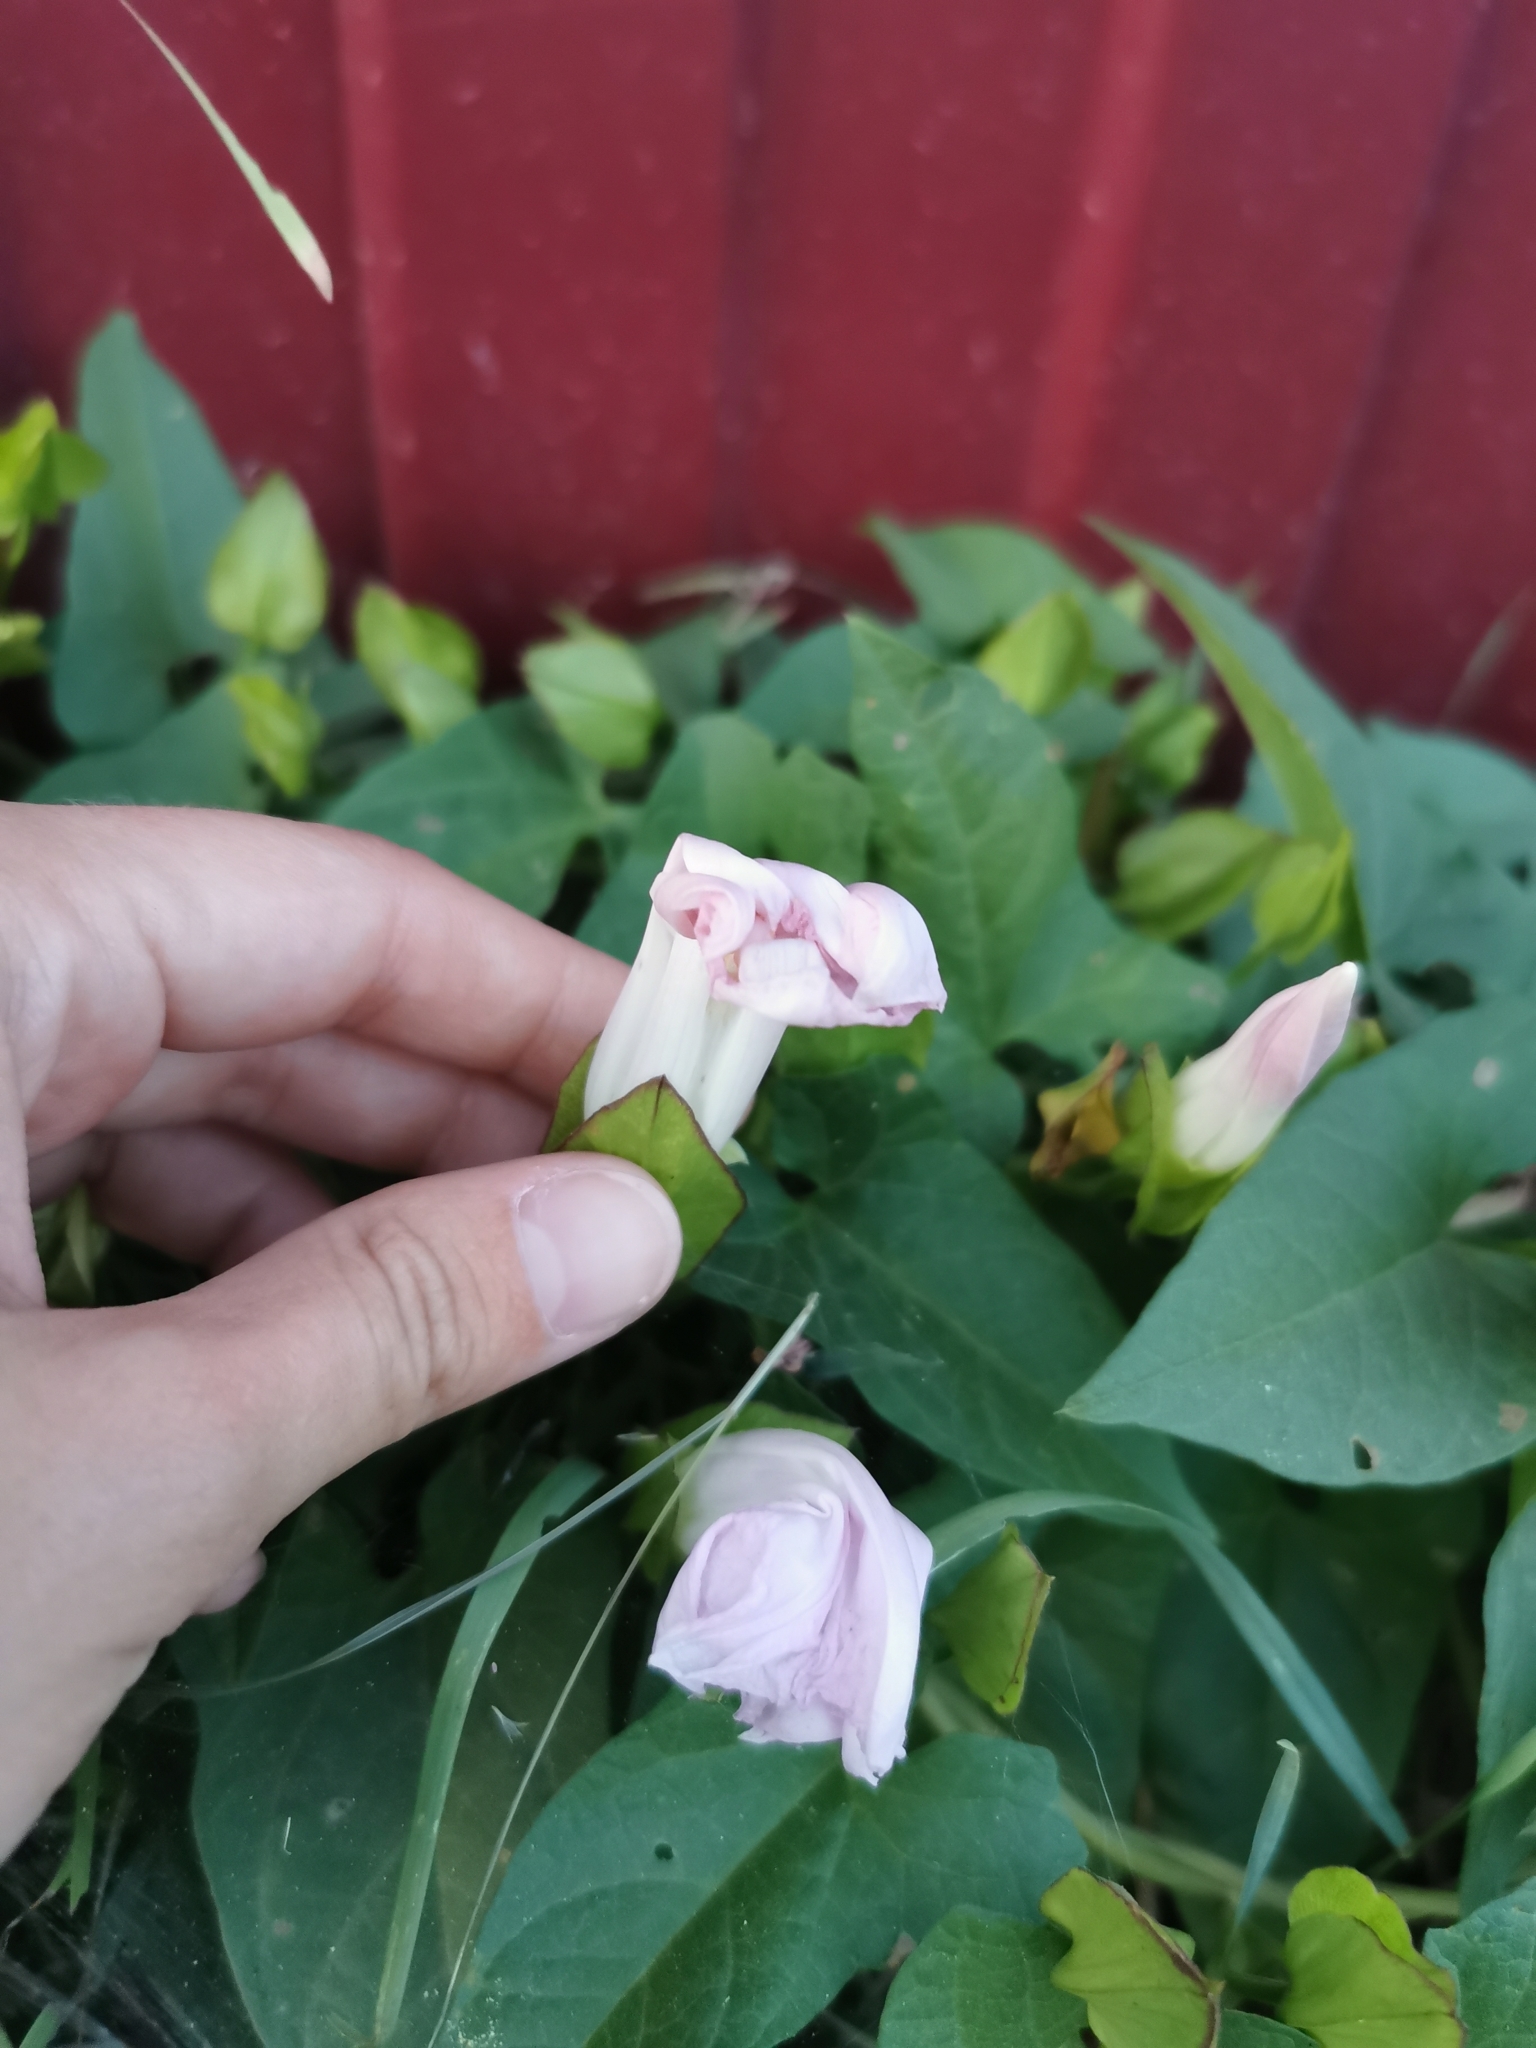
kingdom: Plantae
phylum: Tracheophyta
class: Magnoliopsida
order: Solanales
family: Convolvulaceae
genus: Calystegia
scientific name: Calystegia sepium
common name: Hedge bindweed
